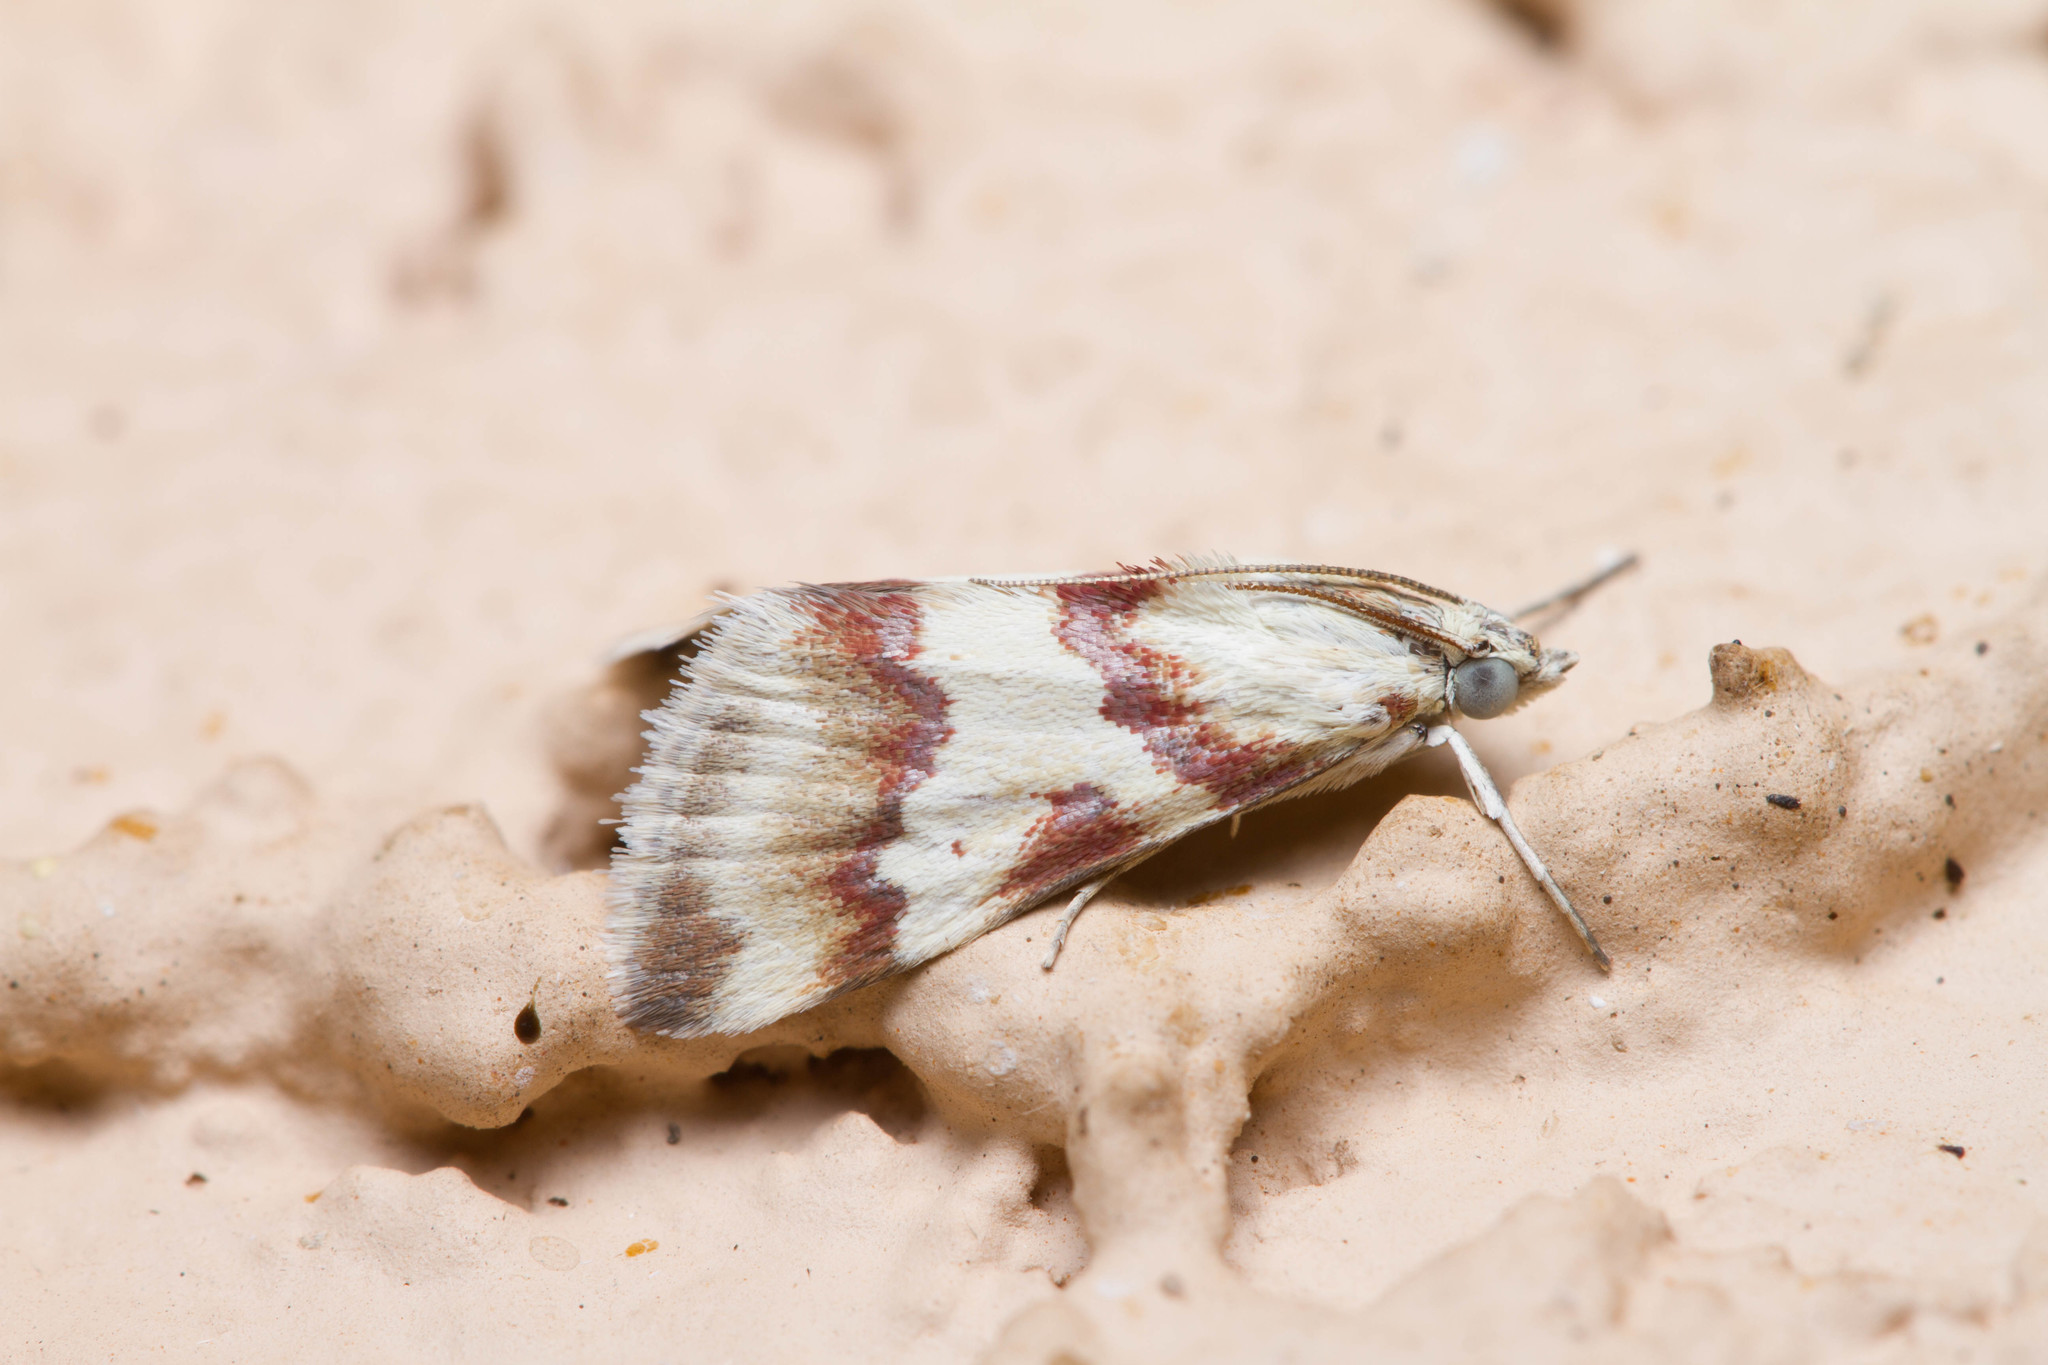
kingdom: Animalia
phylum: Arthropoda
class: Insecta
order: Lepidoptera
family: Crambidae
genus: Noctuelia
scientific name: Noctuelia Mimoschinia rufofascialis
